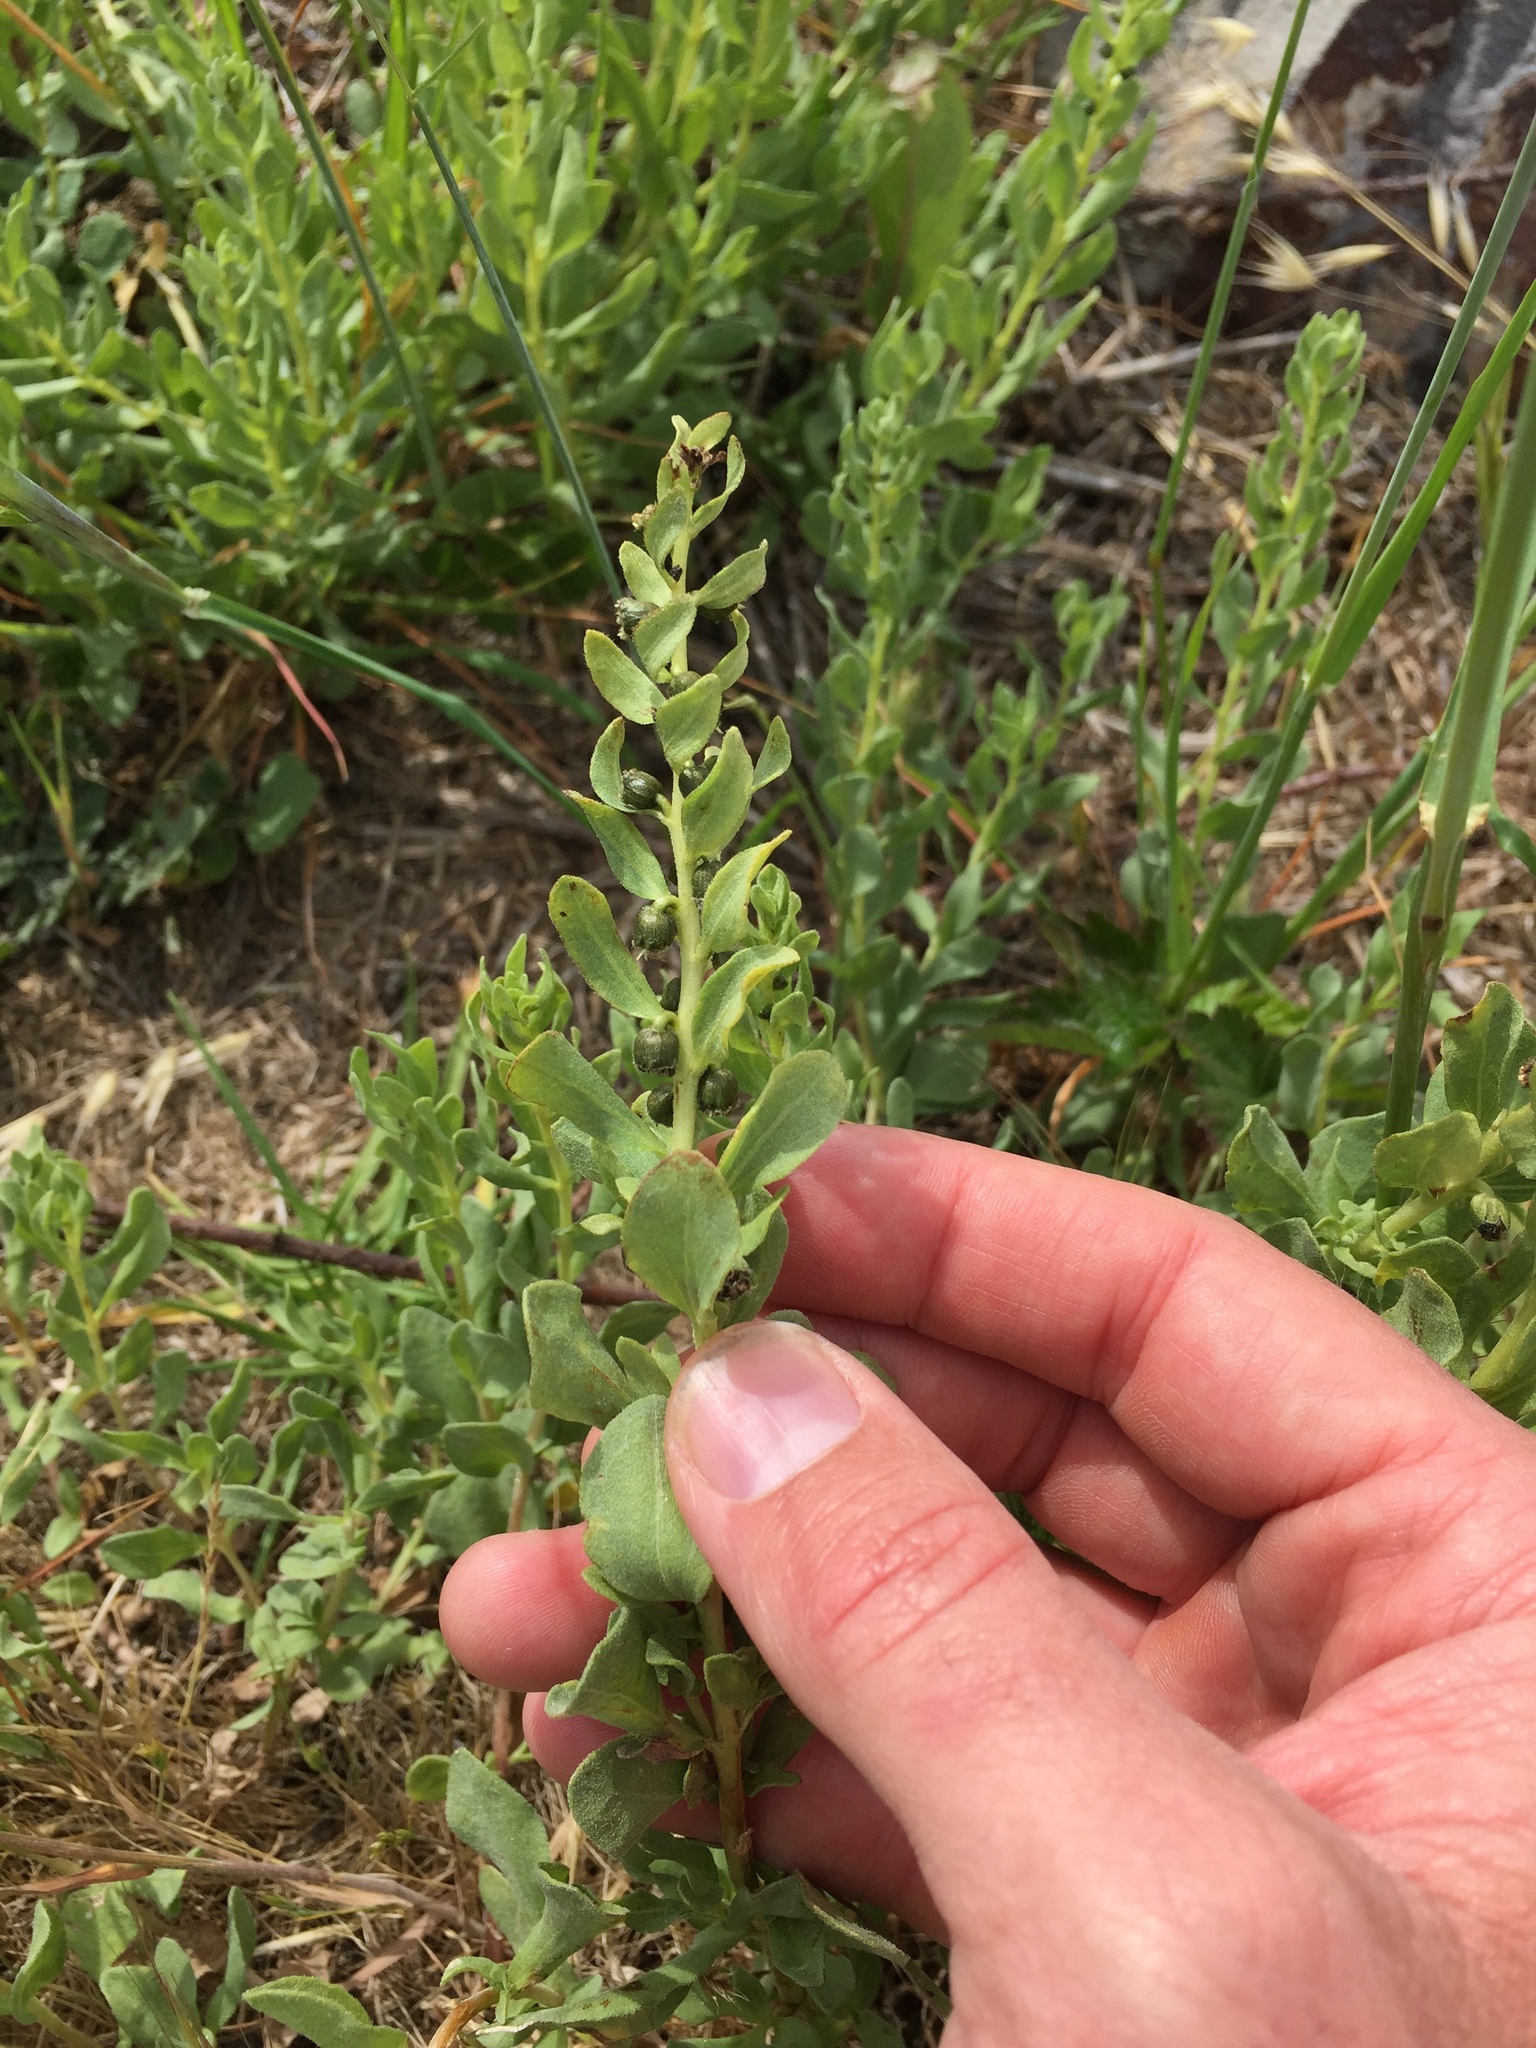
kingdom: Plantae
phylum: Tracheophyta
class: Magnoliopsida
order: Asterales
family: Asteraceae
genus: Iva
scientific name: Iva axillaris
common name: Poverty sumpweed
